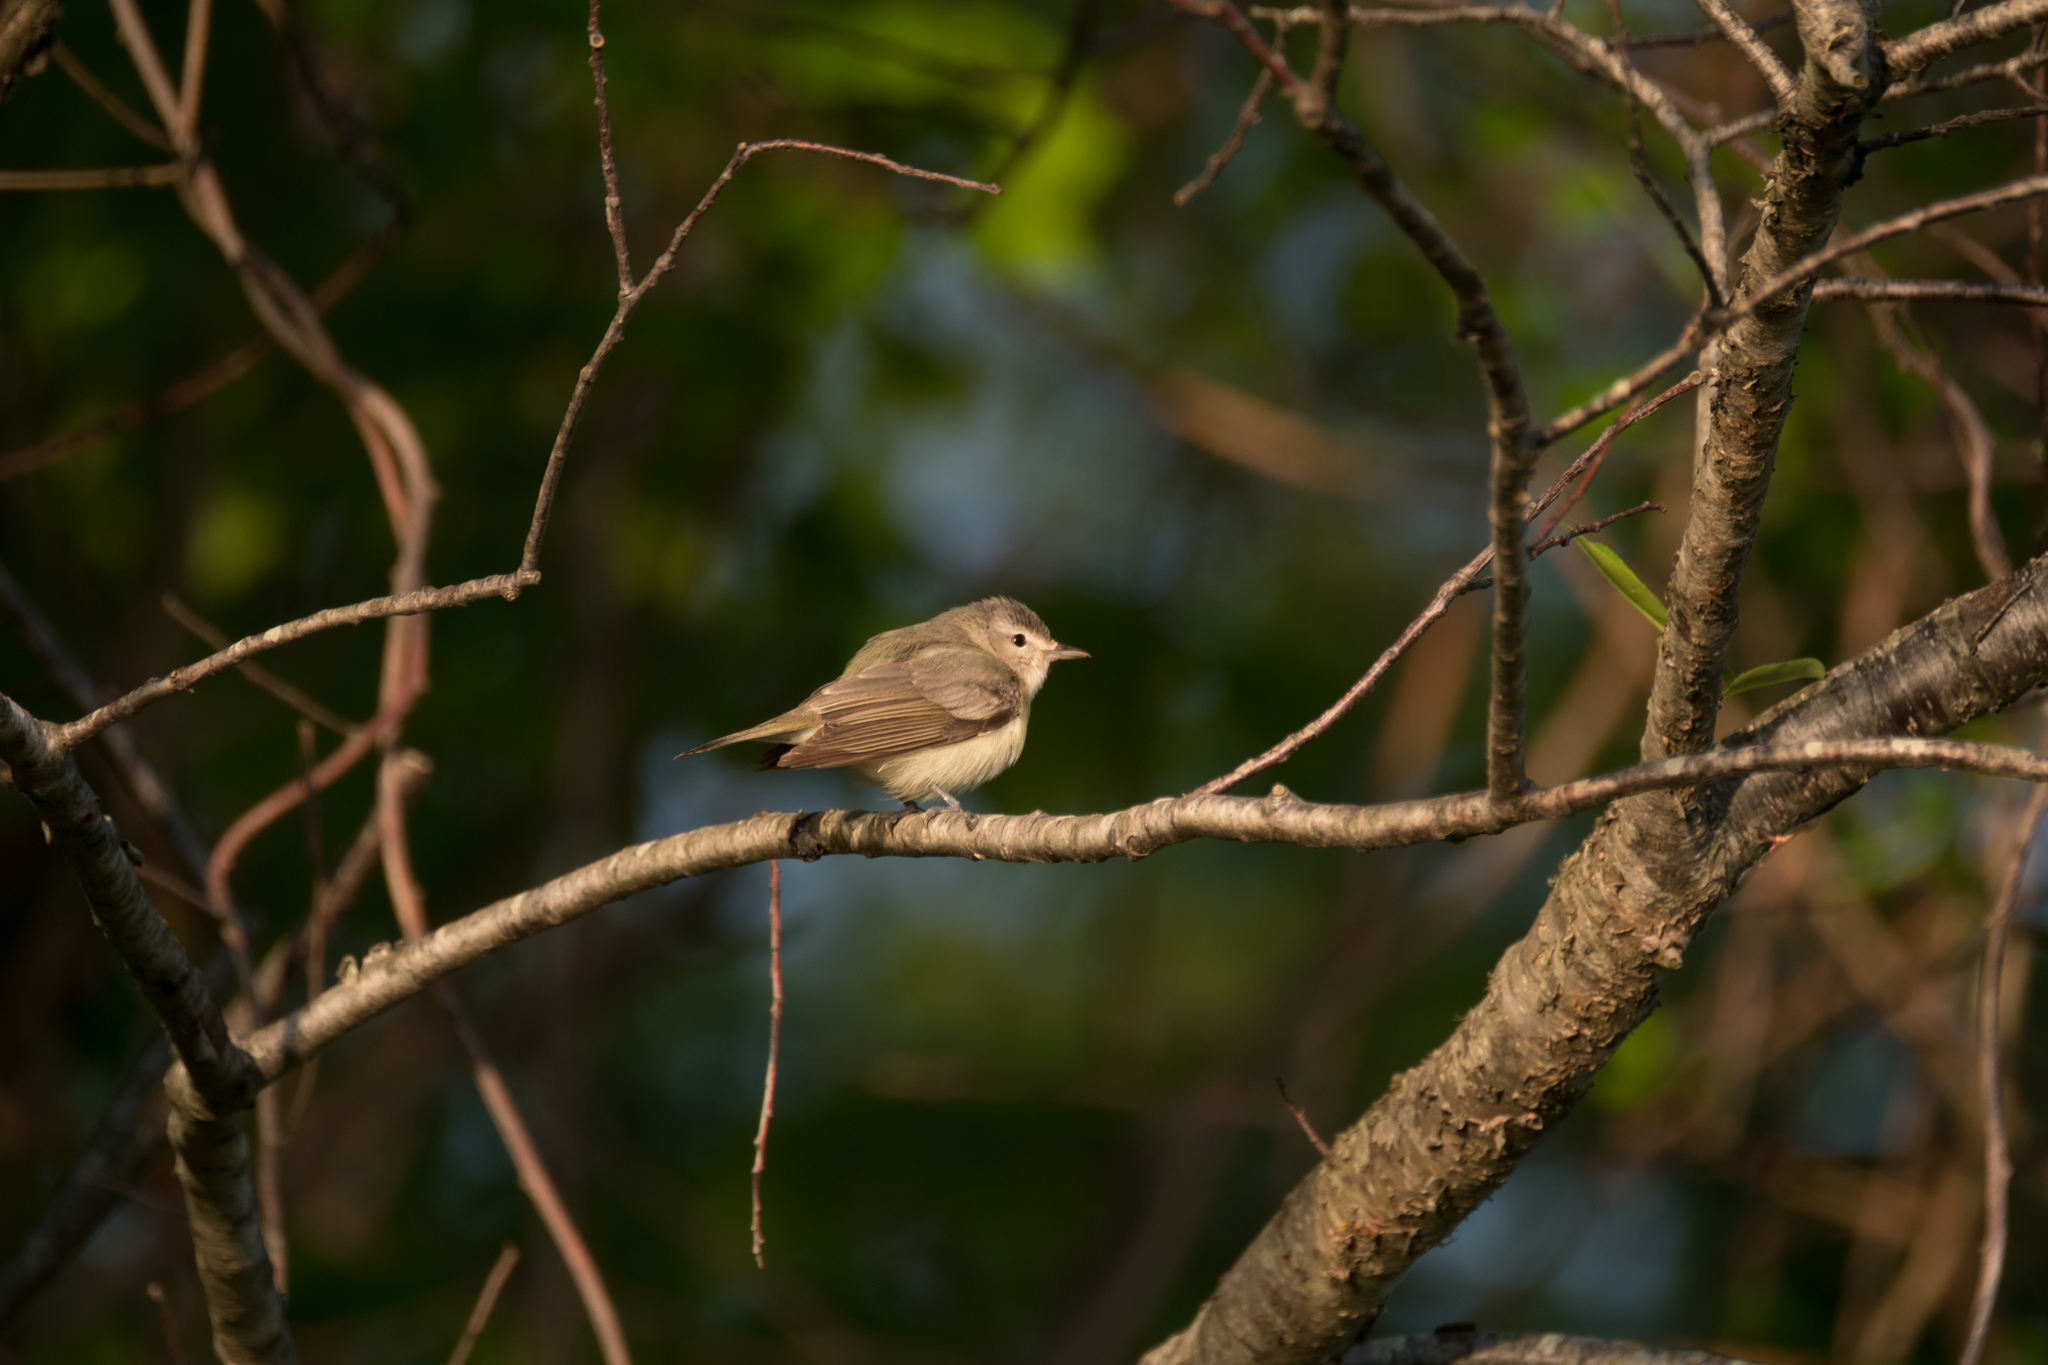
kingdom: Animalia
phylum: Chordata
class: Aves
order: Passeriformes
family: Vireonidae
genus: Vireo
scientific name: Vireo gilvus
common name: Warbling vireo
